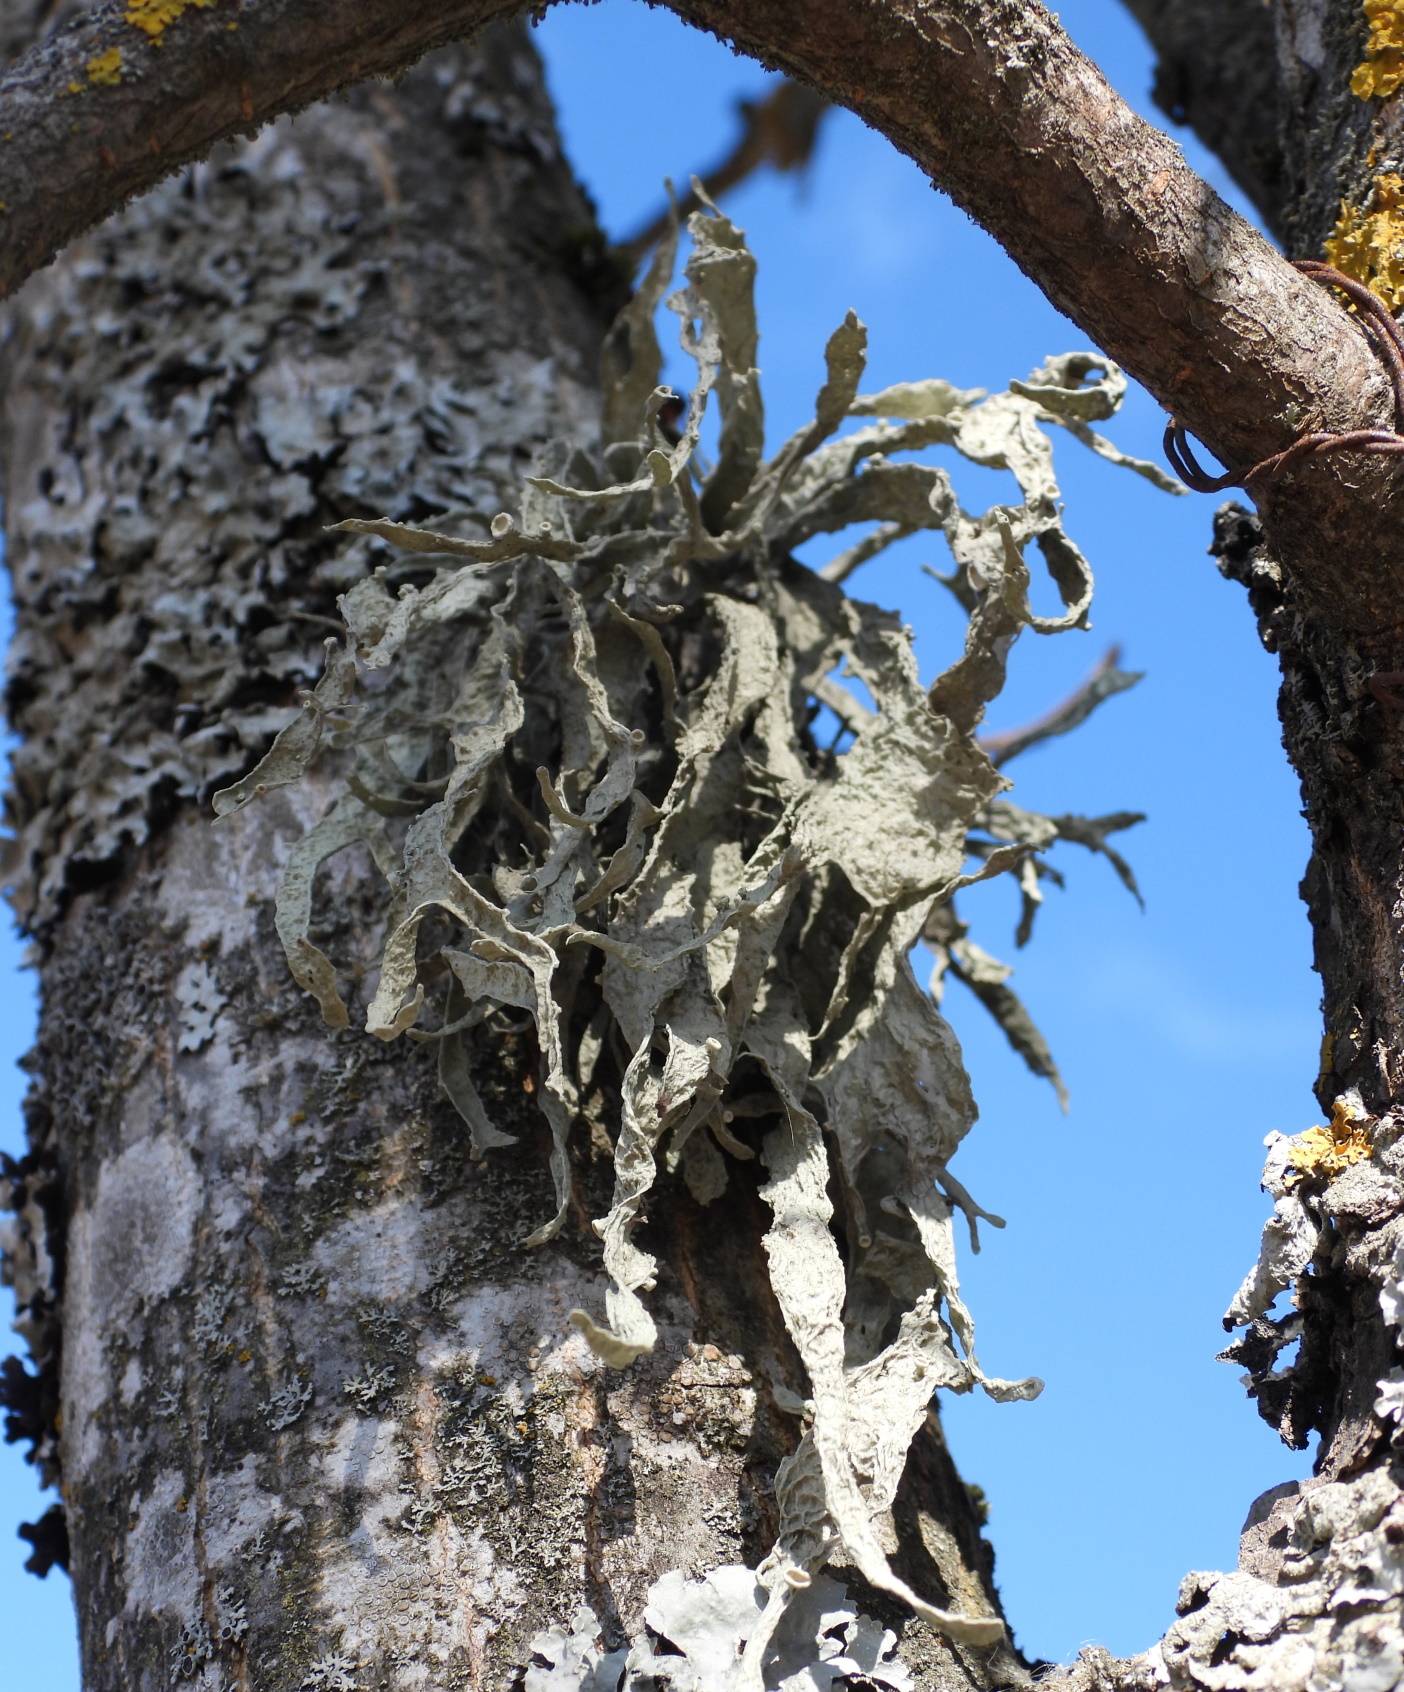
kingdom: Fungi
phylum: Ascomycota
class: Lecanoromycetes
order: Lecanorales
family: Ramalinaceae
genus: Ramalina
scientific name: Ramalina fraxinea
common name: Cartilage lichen
